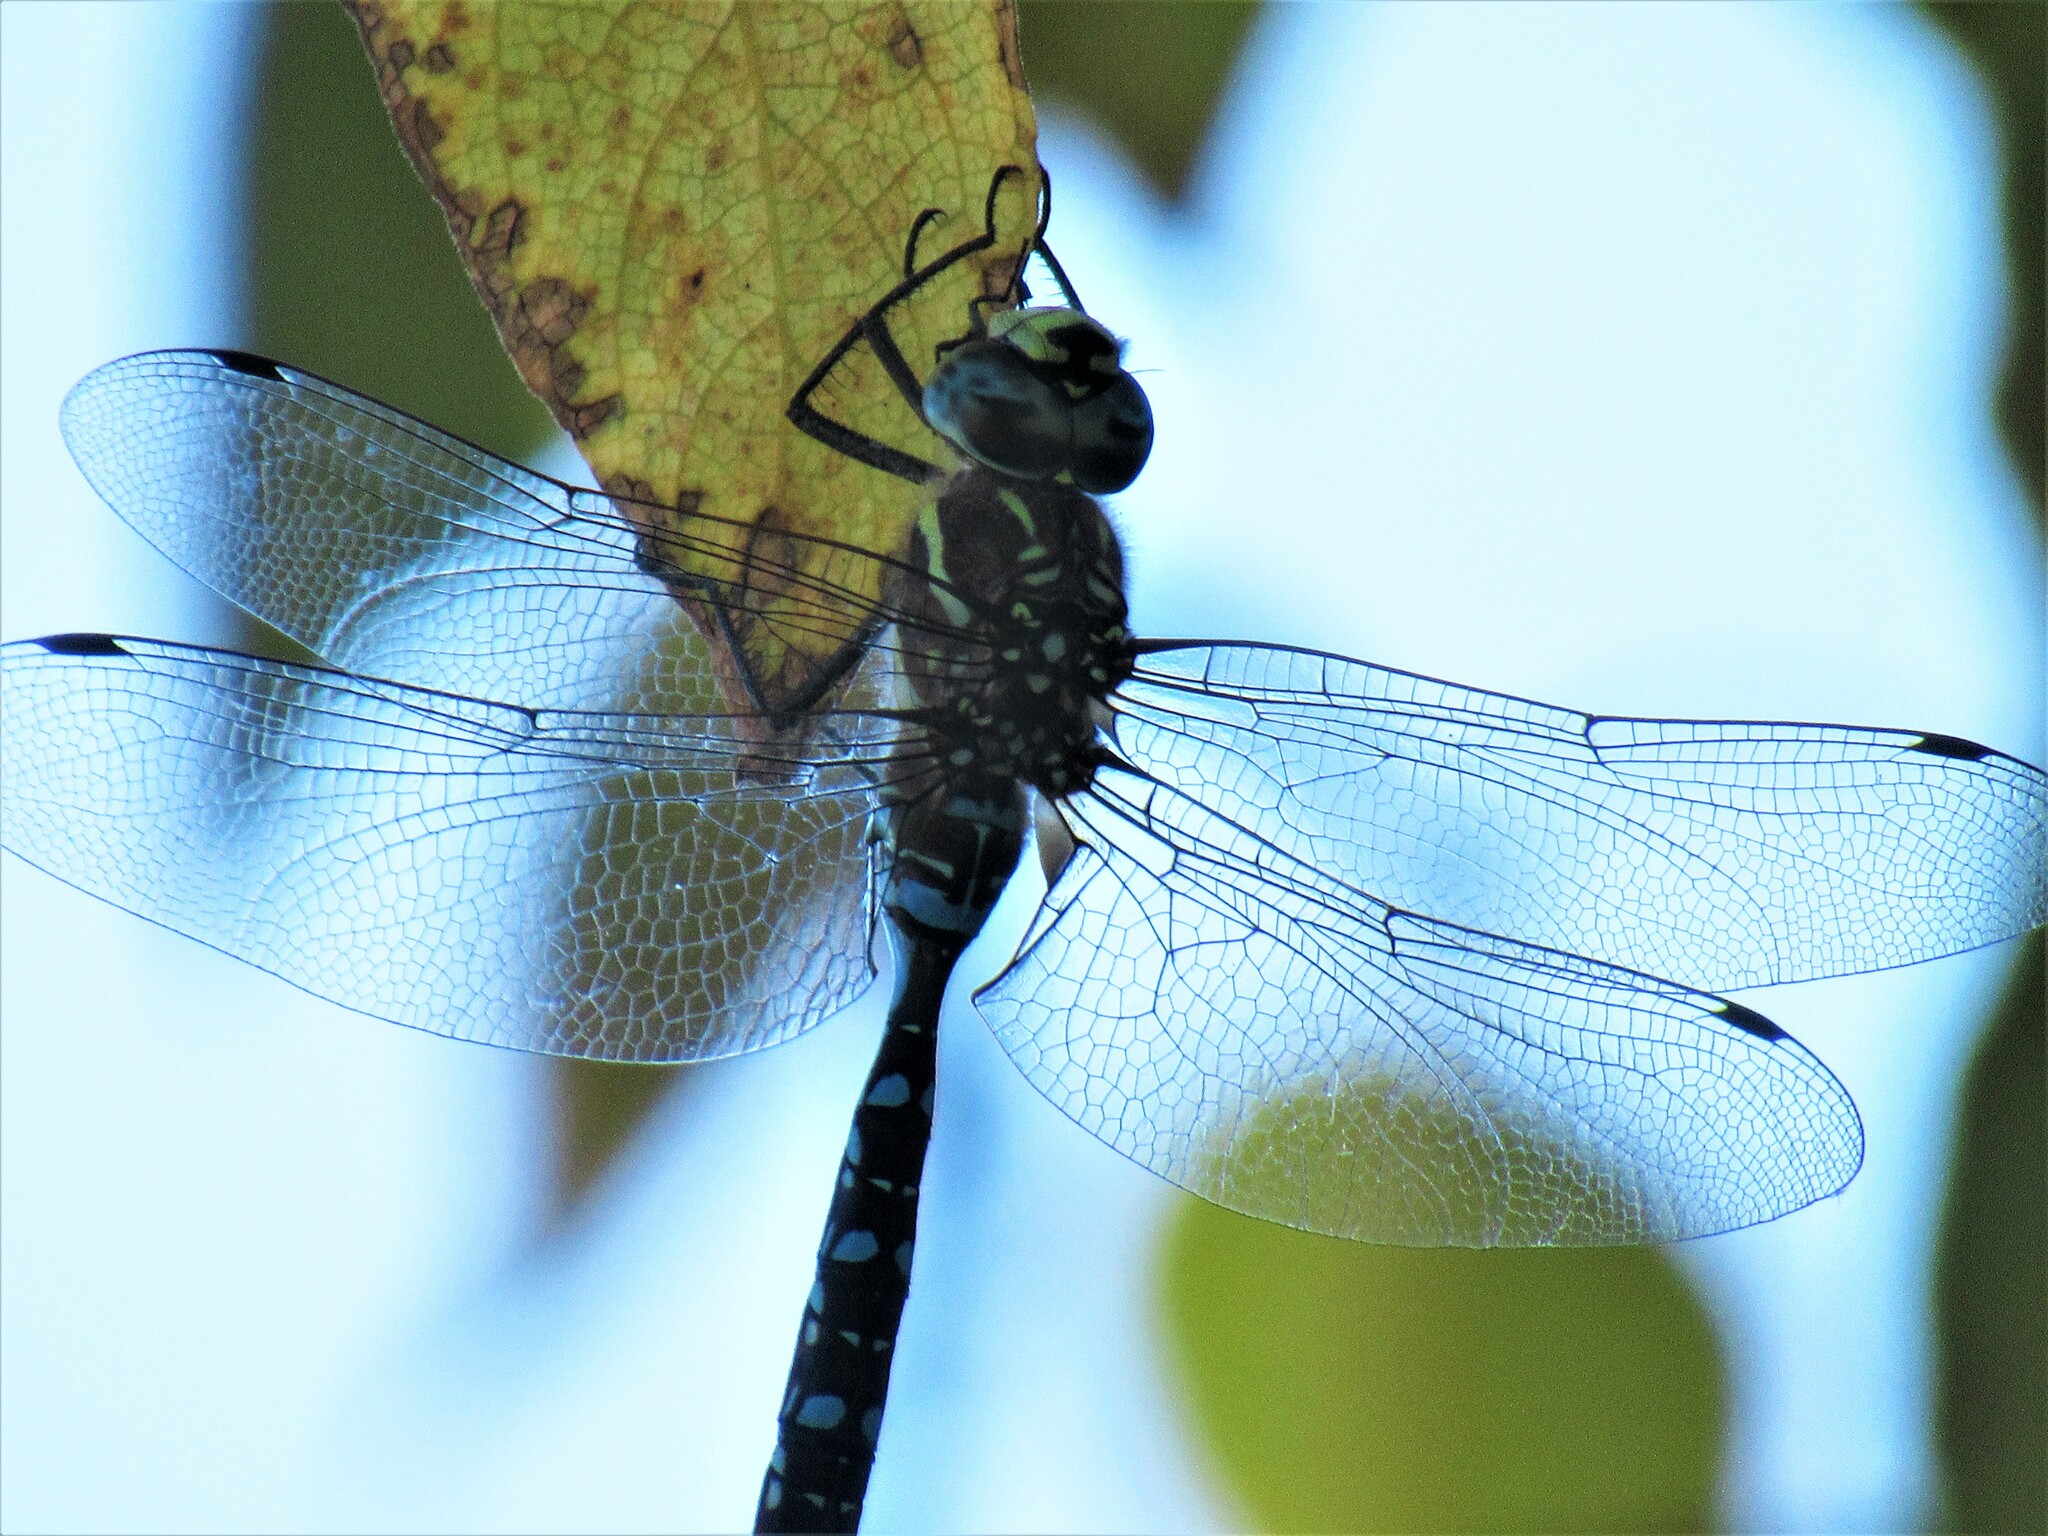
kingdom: Animalia
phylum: Arthropoda
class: Insecta
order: Odonata
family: Aeshnidae
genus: Aeshna
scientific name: Aeshna palmata
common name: Paddle-tailed darner
